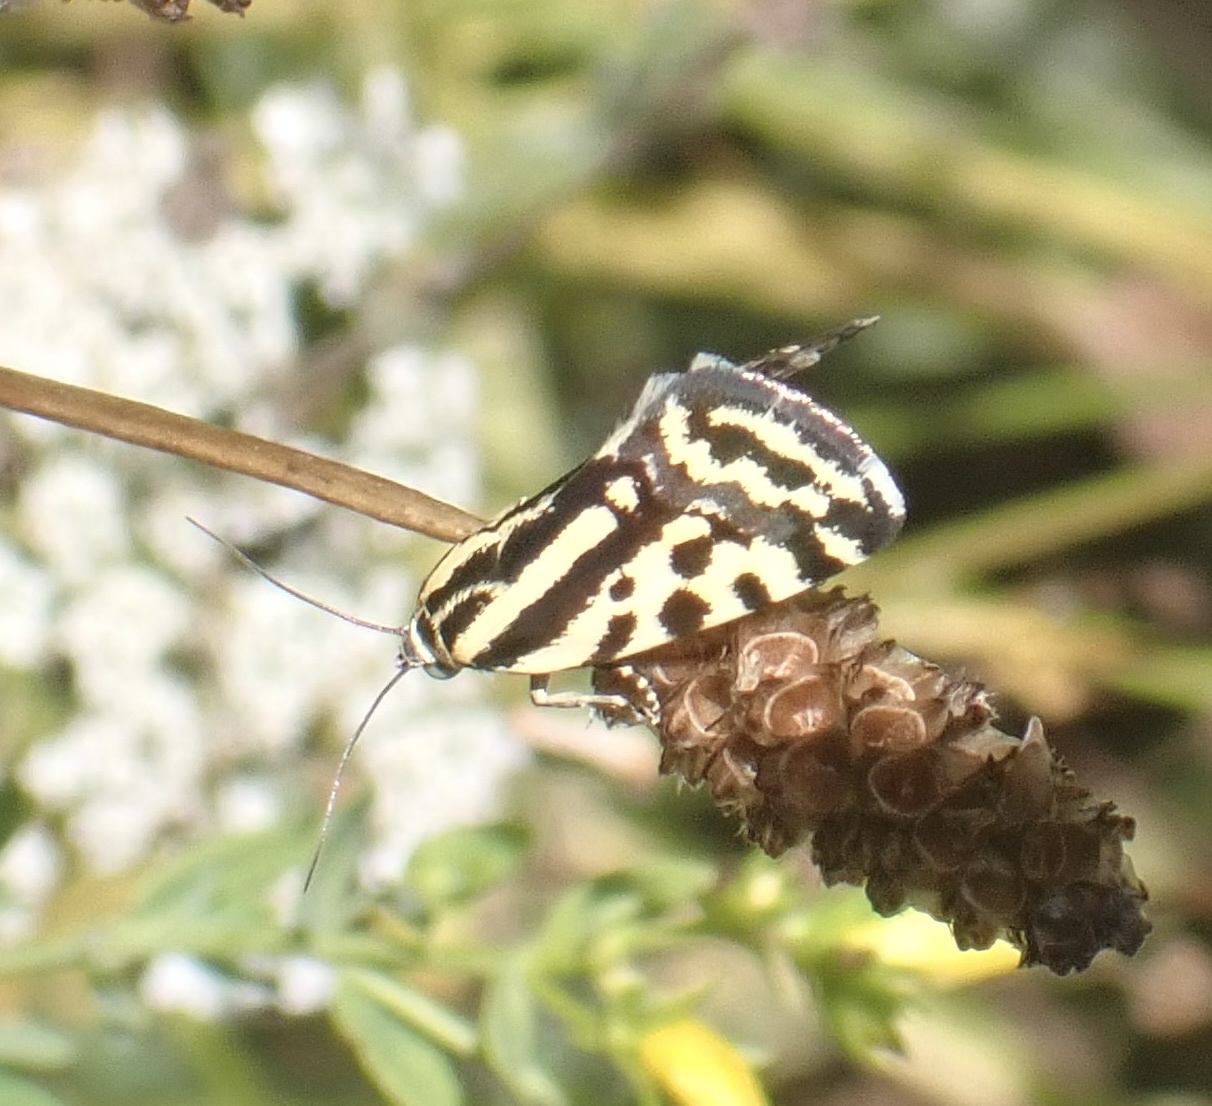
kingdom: Animalia
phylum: Arthropoda
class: Insecta
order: Lepidoptera
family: Noctuidae
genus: Acontia
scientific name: Acontia trabealis
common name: Spotted sulphur
